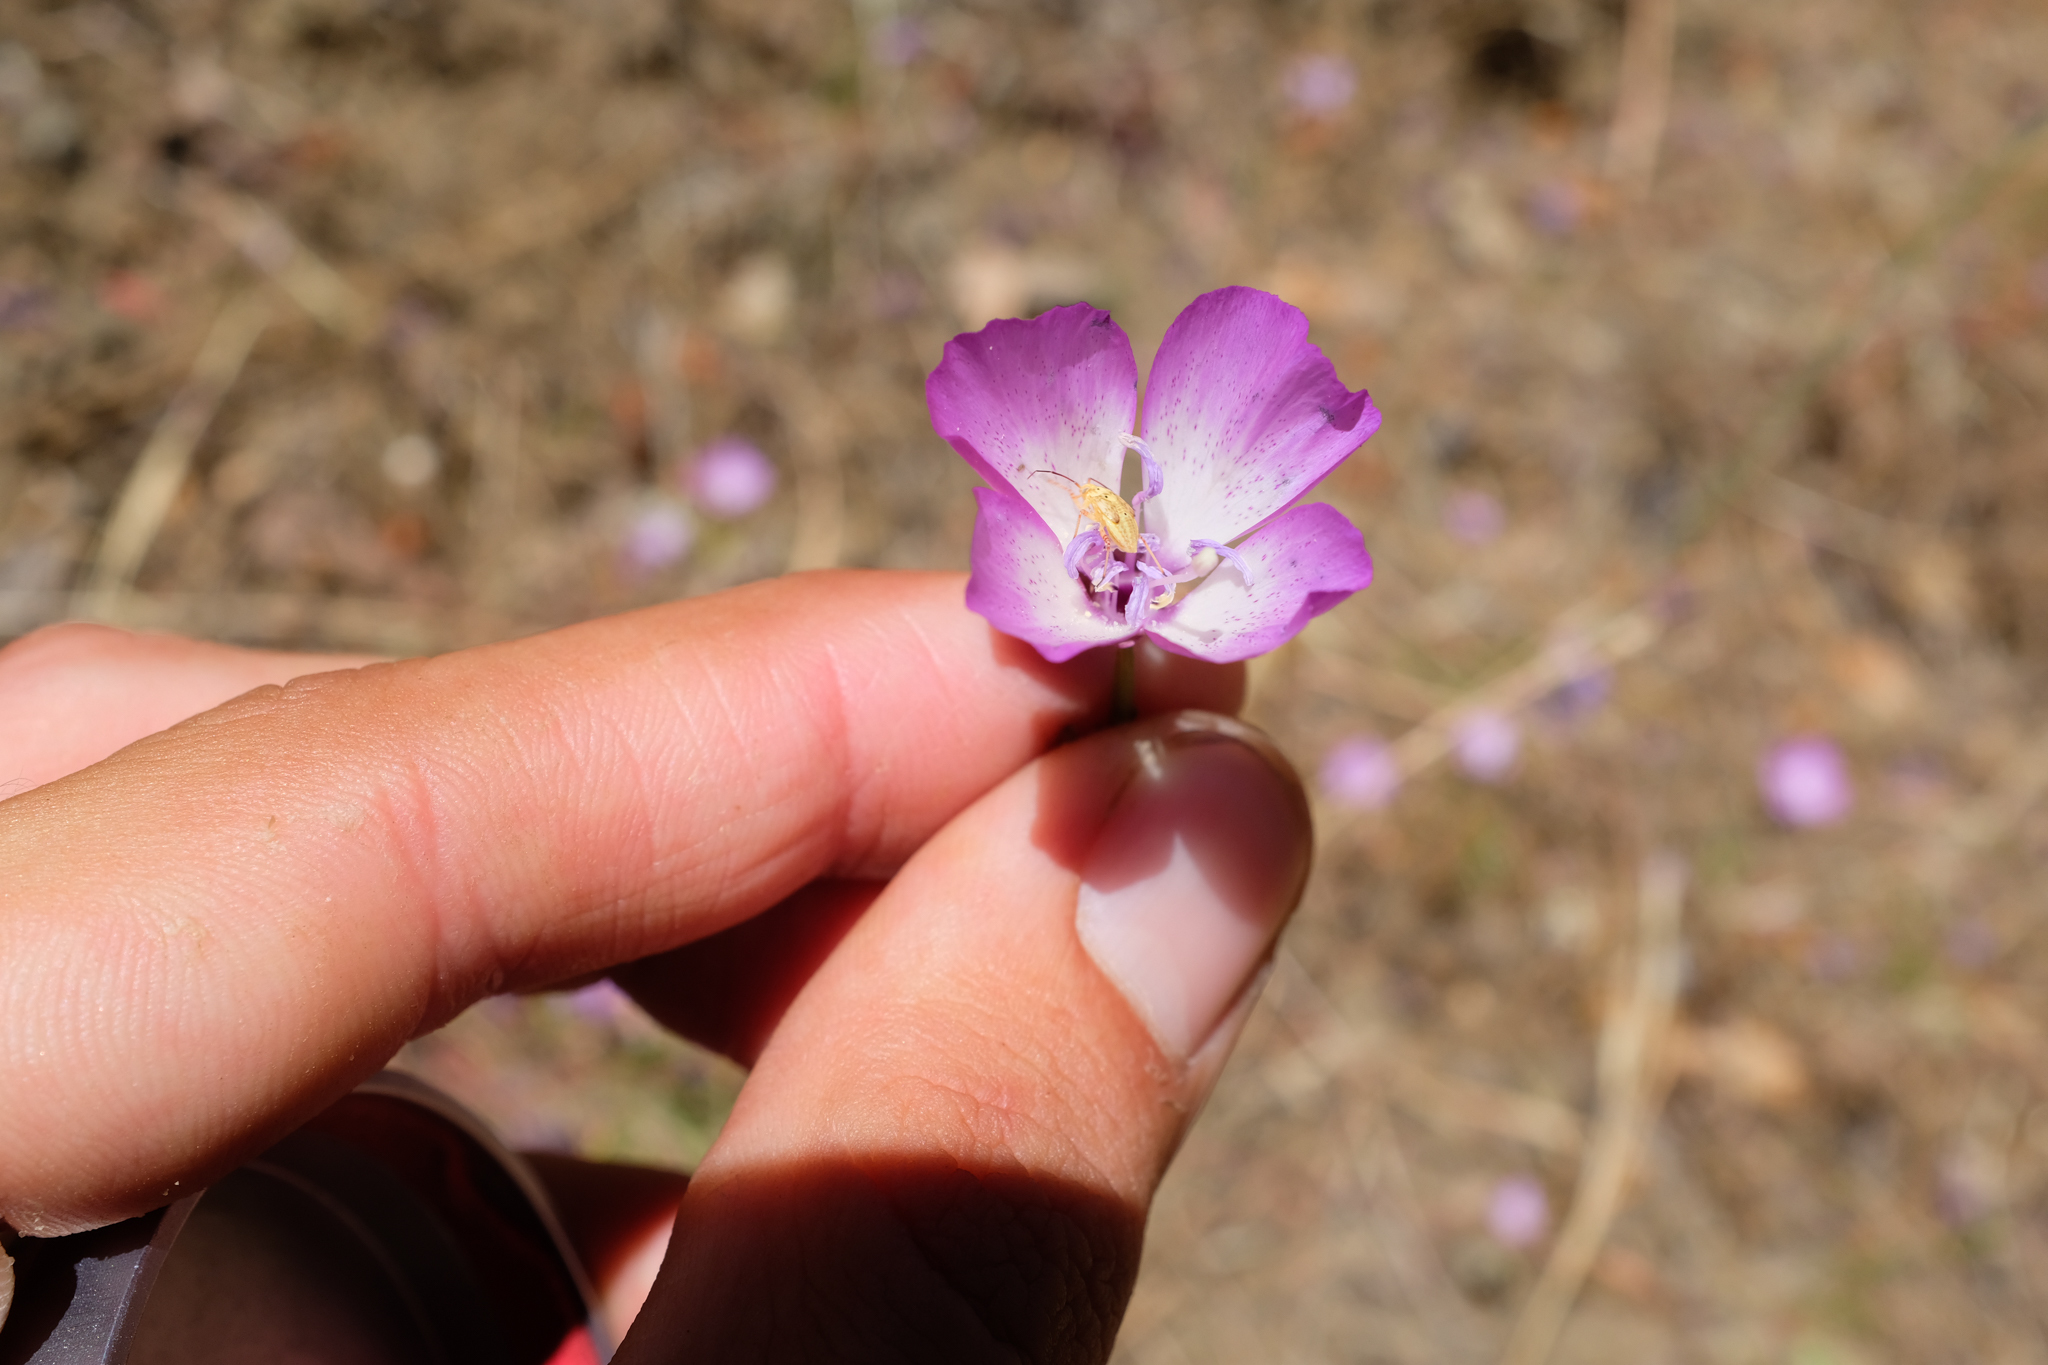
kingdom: Plantae
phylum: Tracheophyta
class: Magnoliopsida
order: Myrtales
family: Onagraceae
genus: Clarkia
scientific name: Clarkia cylindrica
